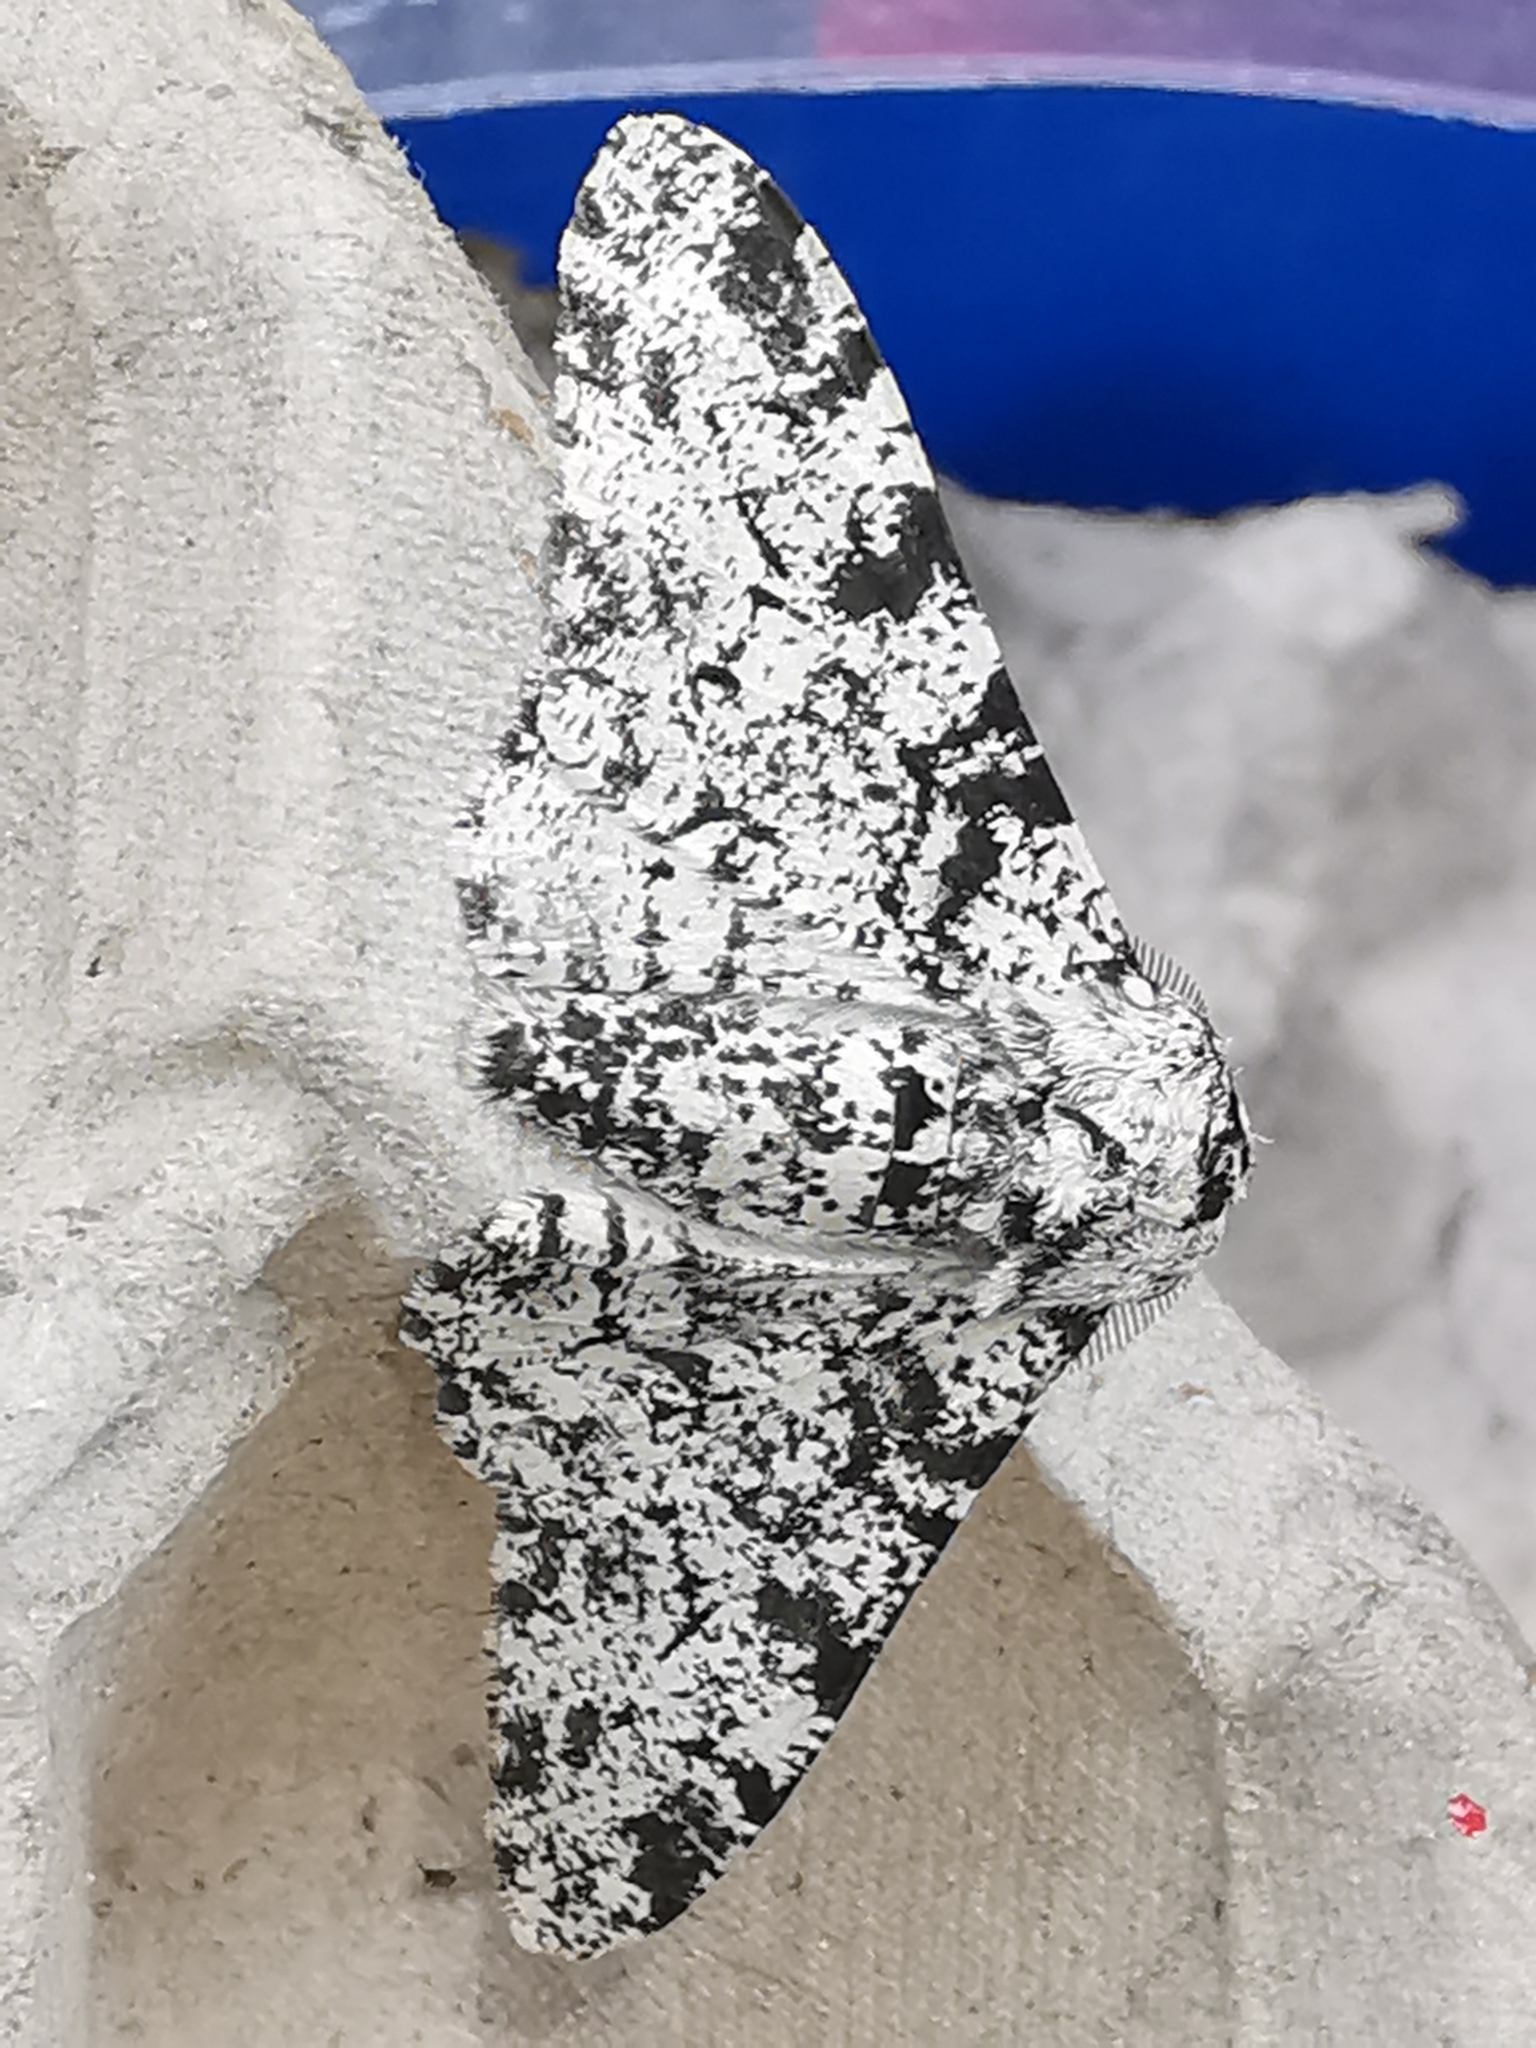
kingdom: Animalia
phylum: Arthropoda
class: Insecta
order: Lepidoptera
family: Geometridae
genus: Biston
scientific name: Biston betularia
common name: Peppered moth
